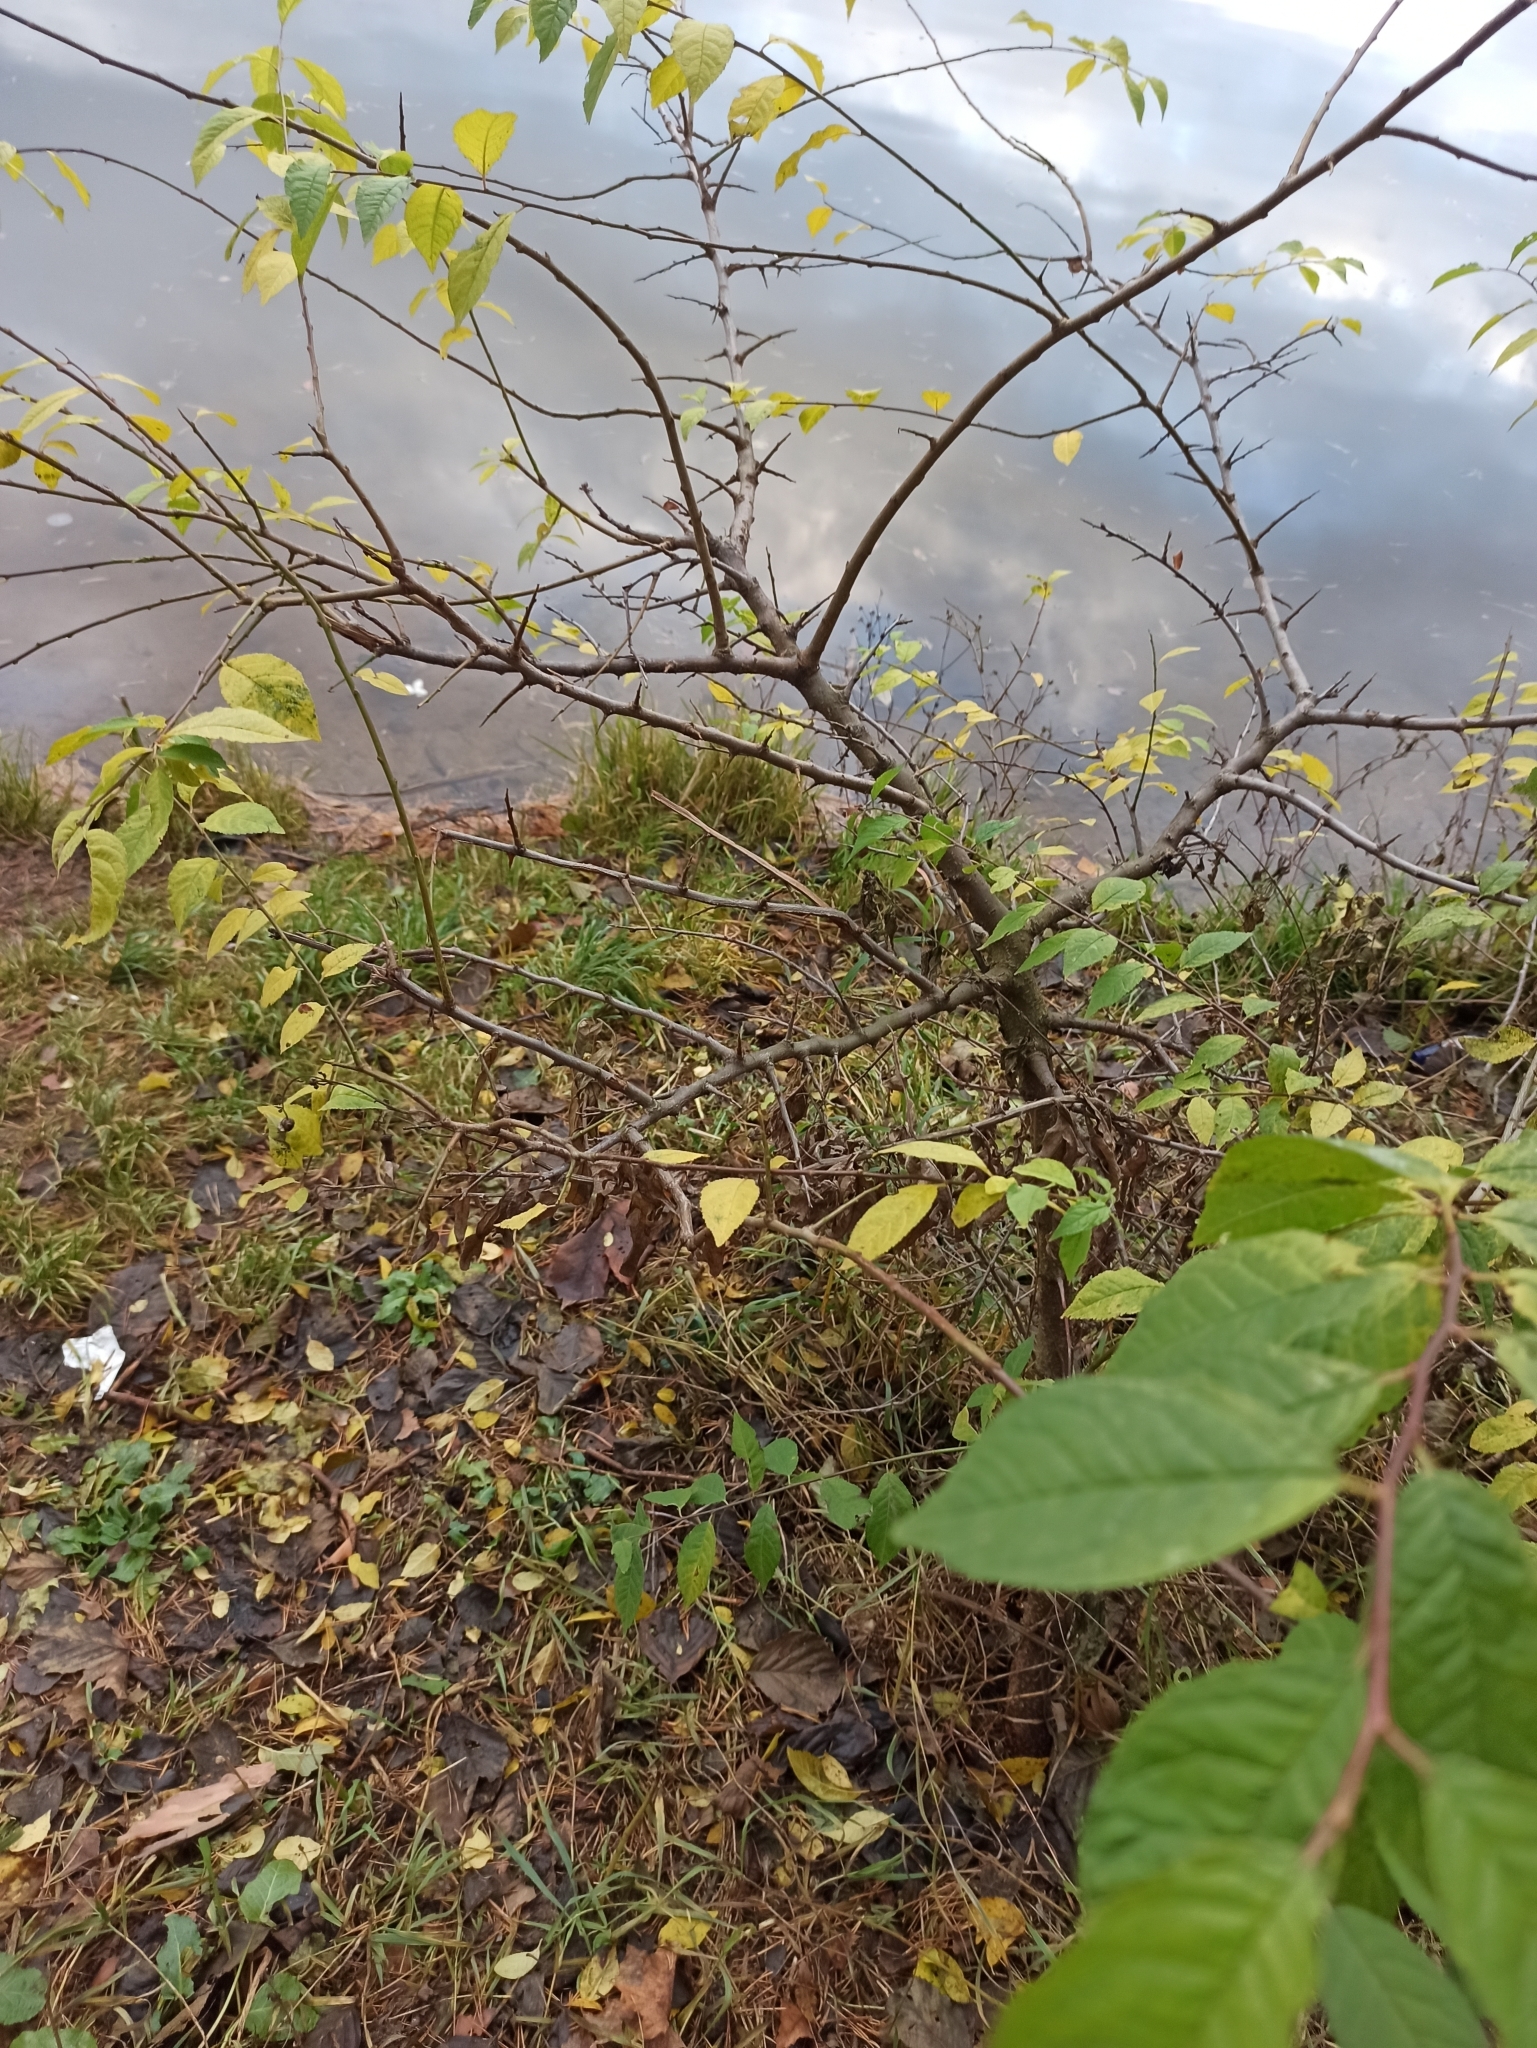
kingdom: Plantae
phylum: Tracheophyta
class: Magnoliopsida
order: Rosales
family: Rosaceae
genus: Prunus
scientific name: Prunus cerasifera
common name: Cherry plum
